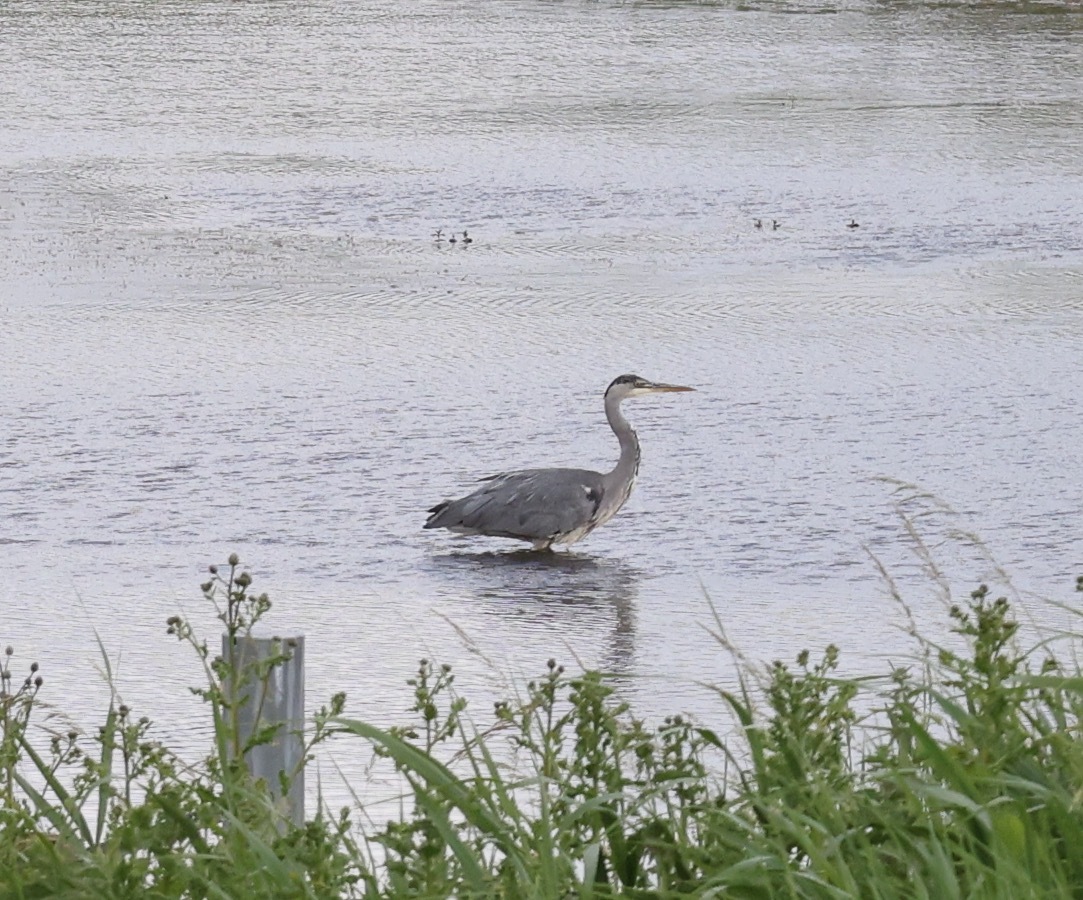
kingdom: Animalia
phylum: Chordata
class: Aves
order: Pelecaniformes
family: Ardeidae
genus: Ardea
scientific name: Ardea cinerea
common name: Grey heron
